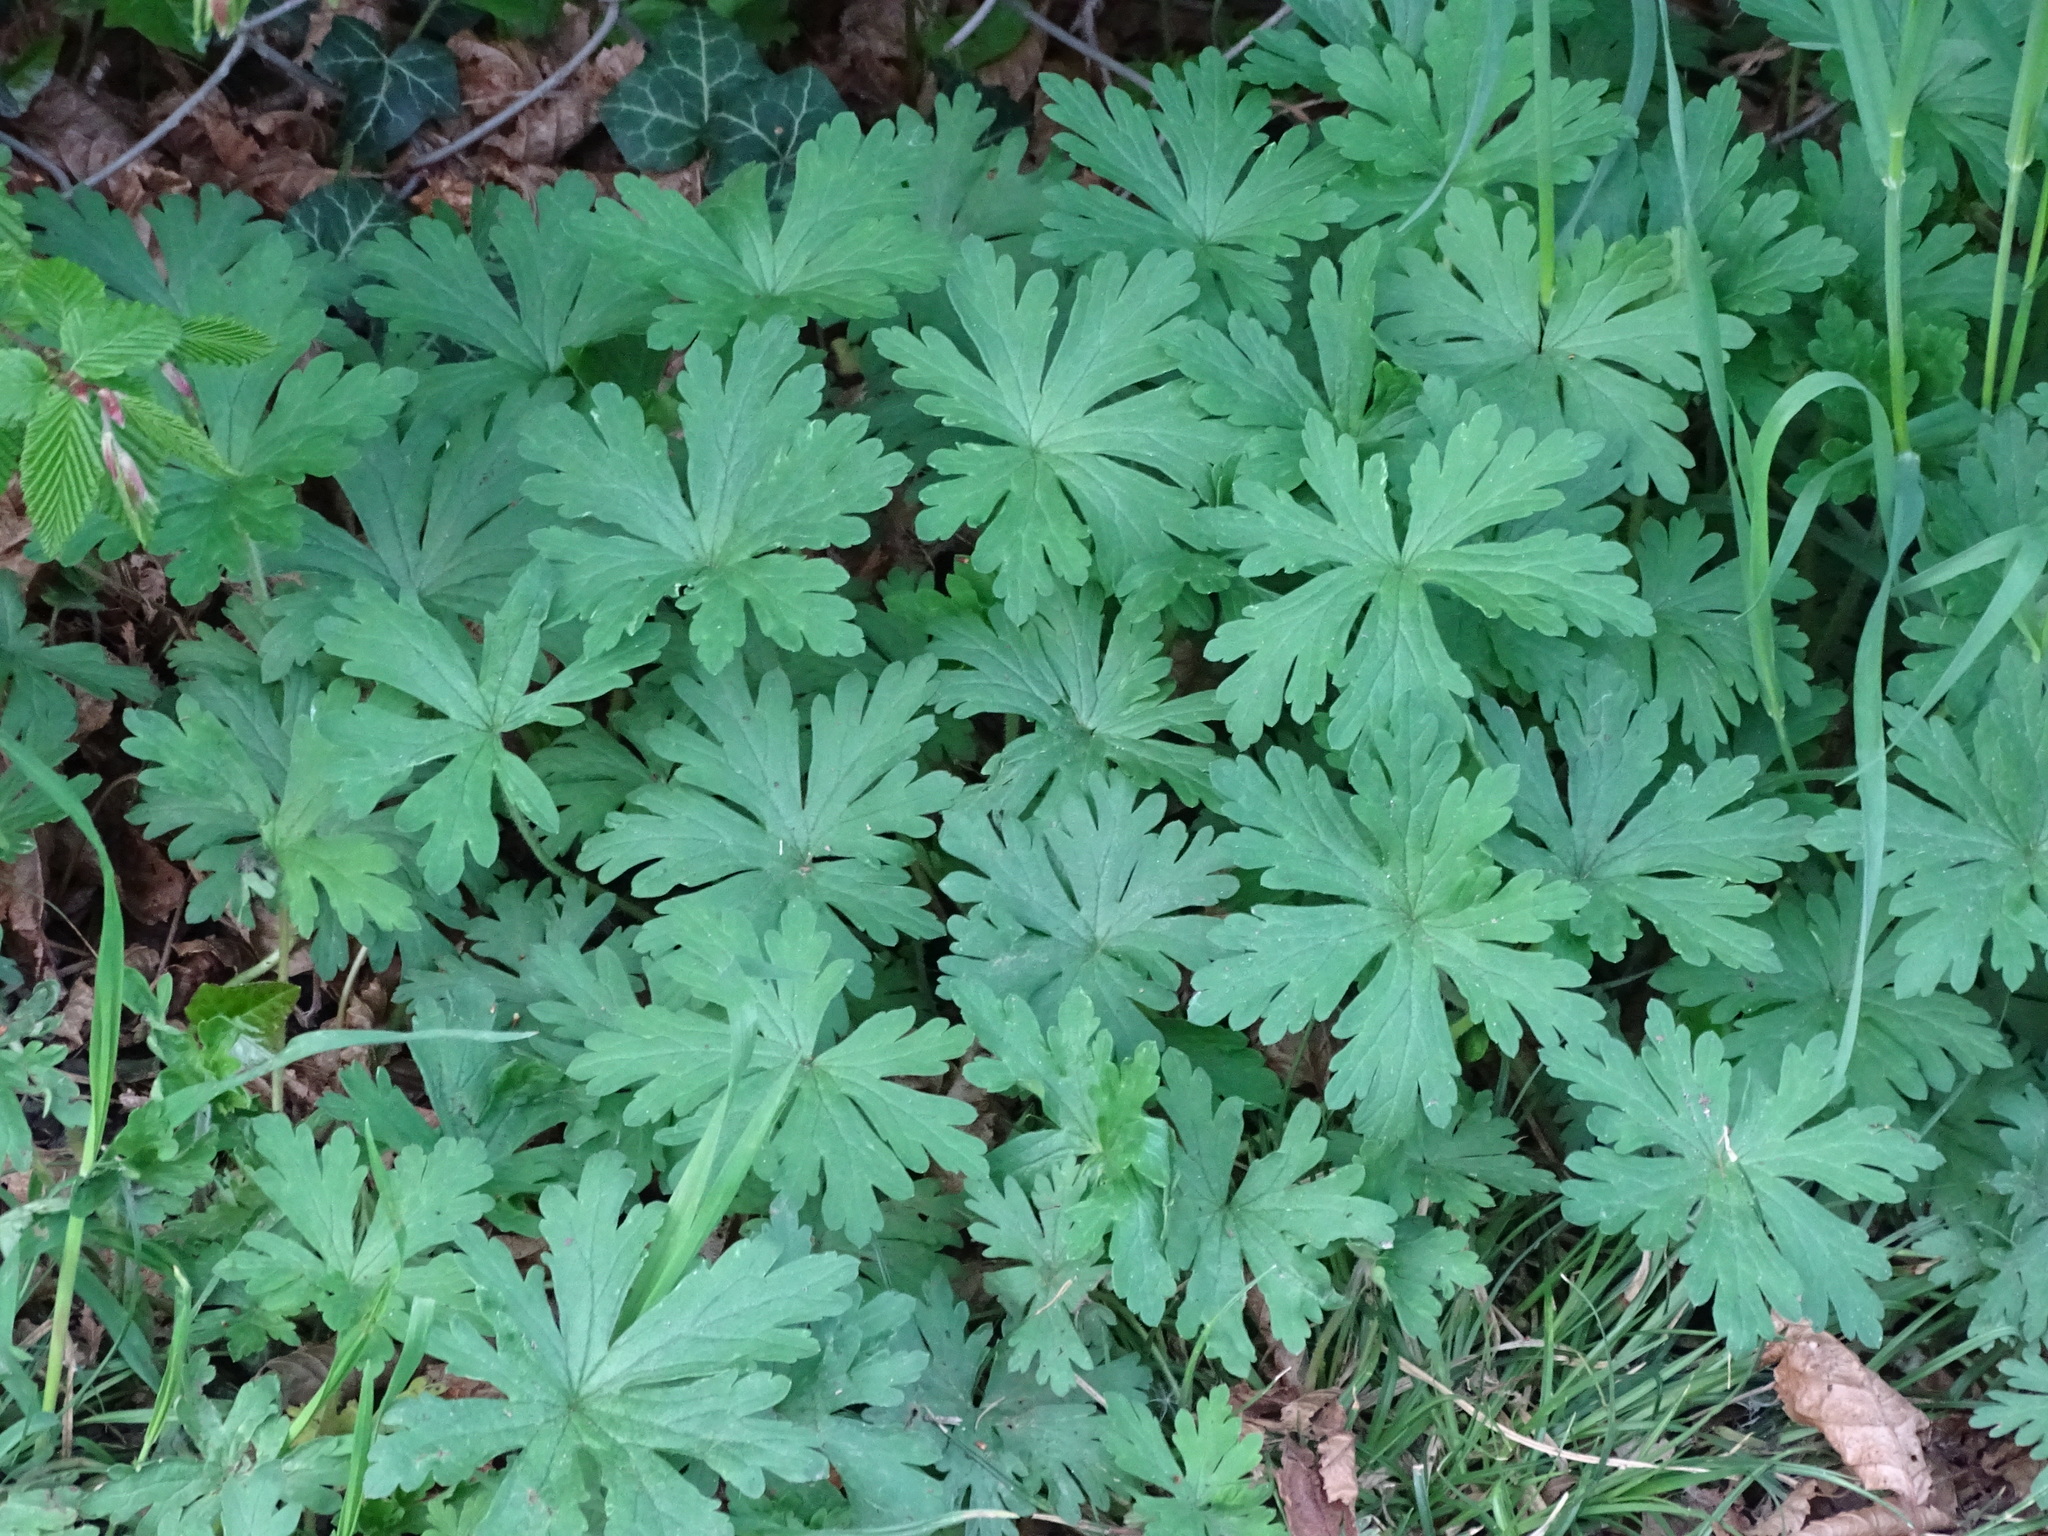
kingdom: Plantae
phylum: Tracheophyta
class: Magnoliopsida
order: Geraniales
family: Geraniaceae
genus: Geranium
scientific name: Geranium sibiricum
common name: Siberian crane's-bill
